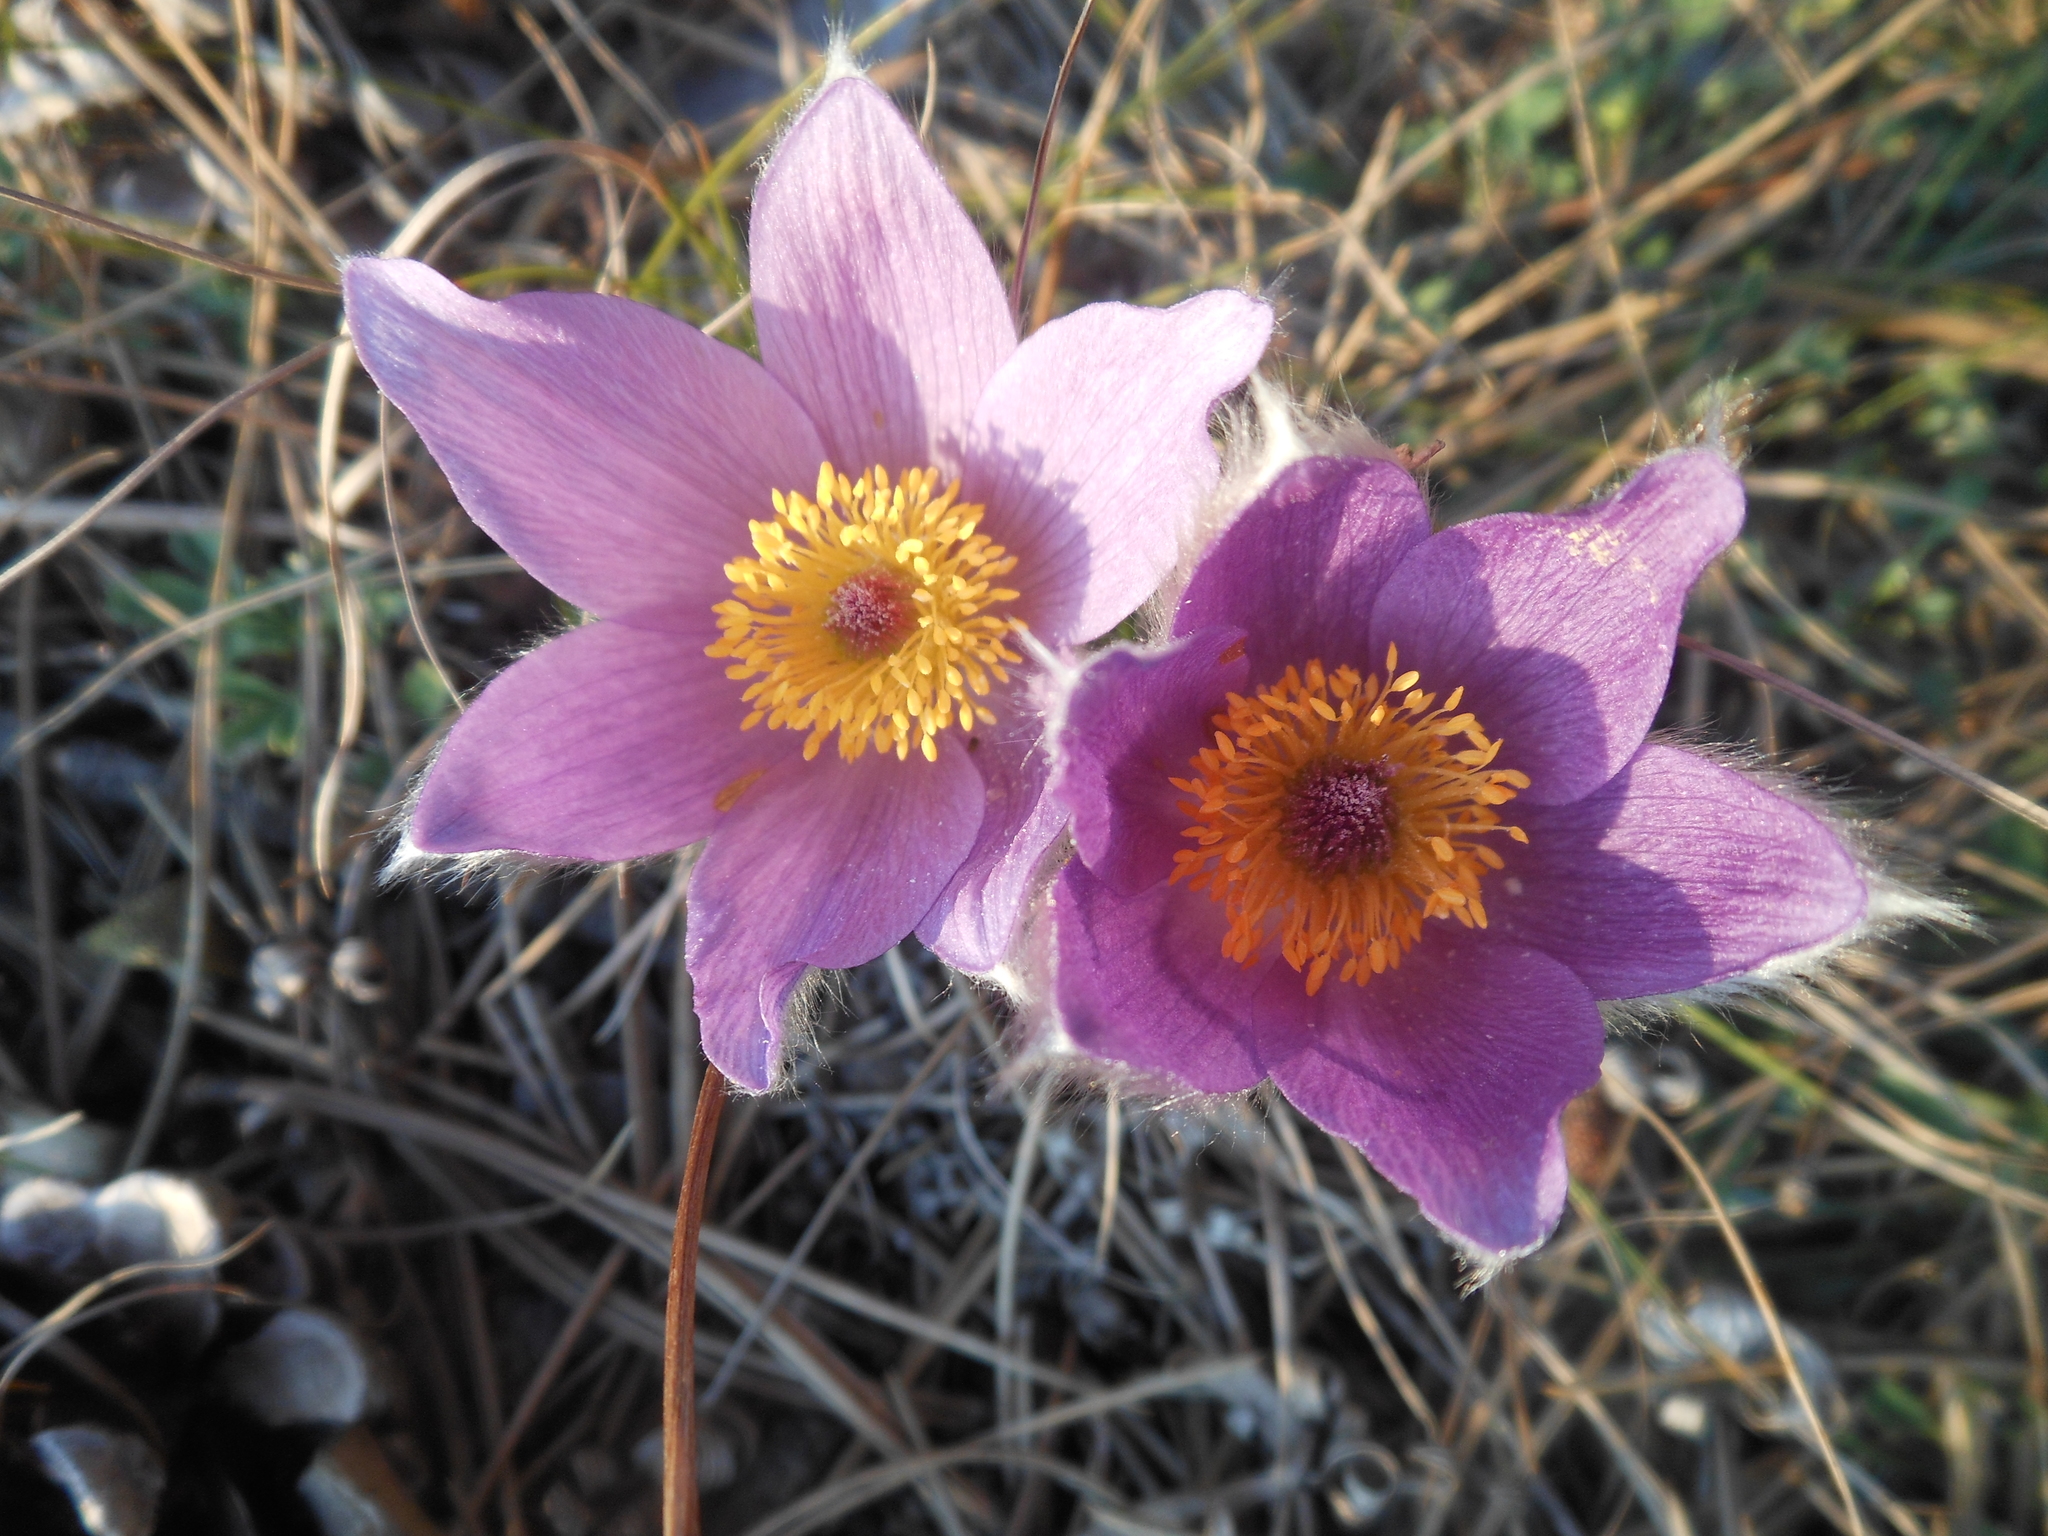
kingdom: Plantae
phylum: Tracheophyta
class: Magnoliopsida
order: Ranunculales
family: Ranunculaceae
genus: Pulsatilla
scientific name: Pulsatilla grandis
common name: Greater pasque flower
